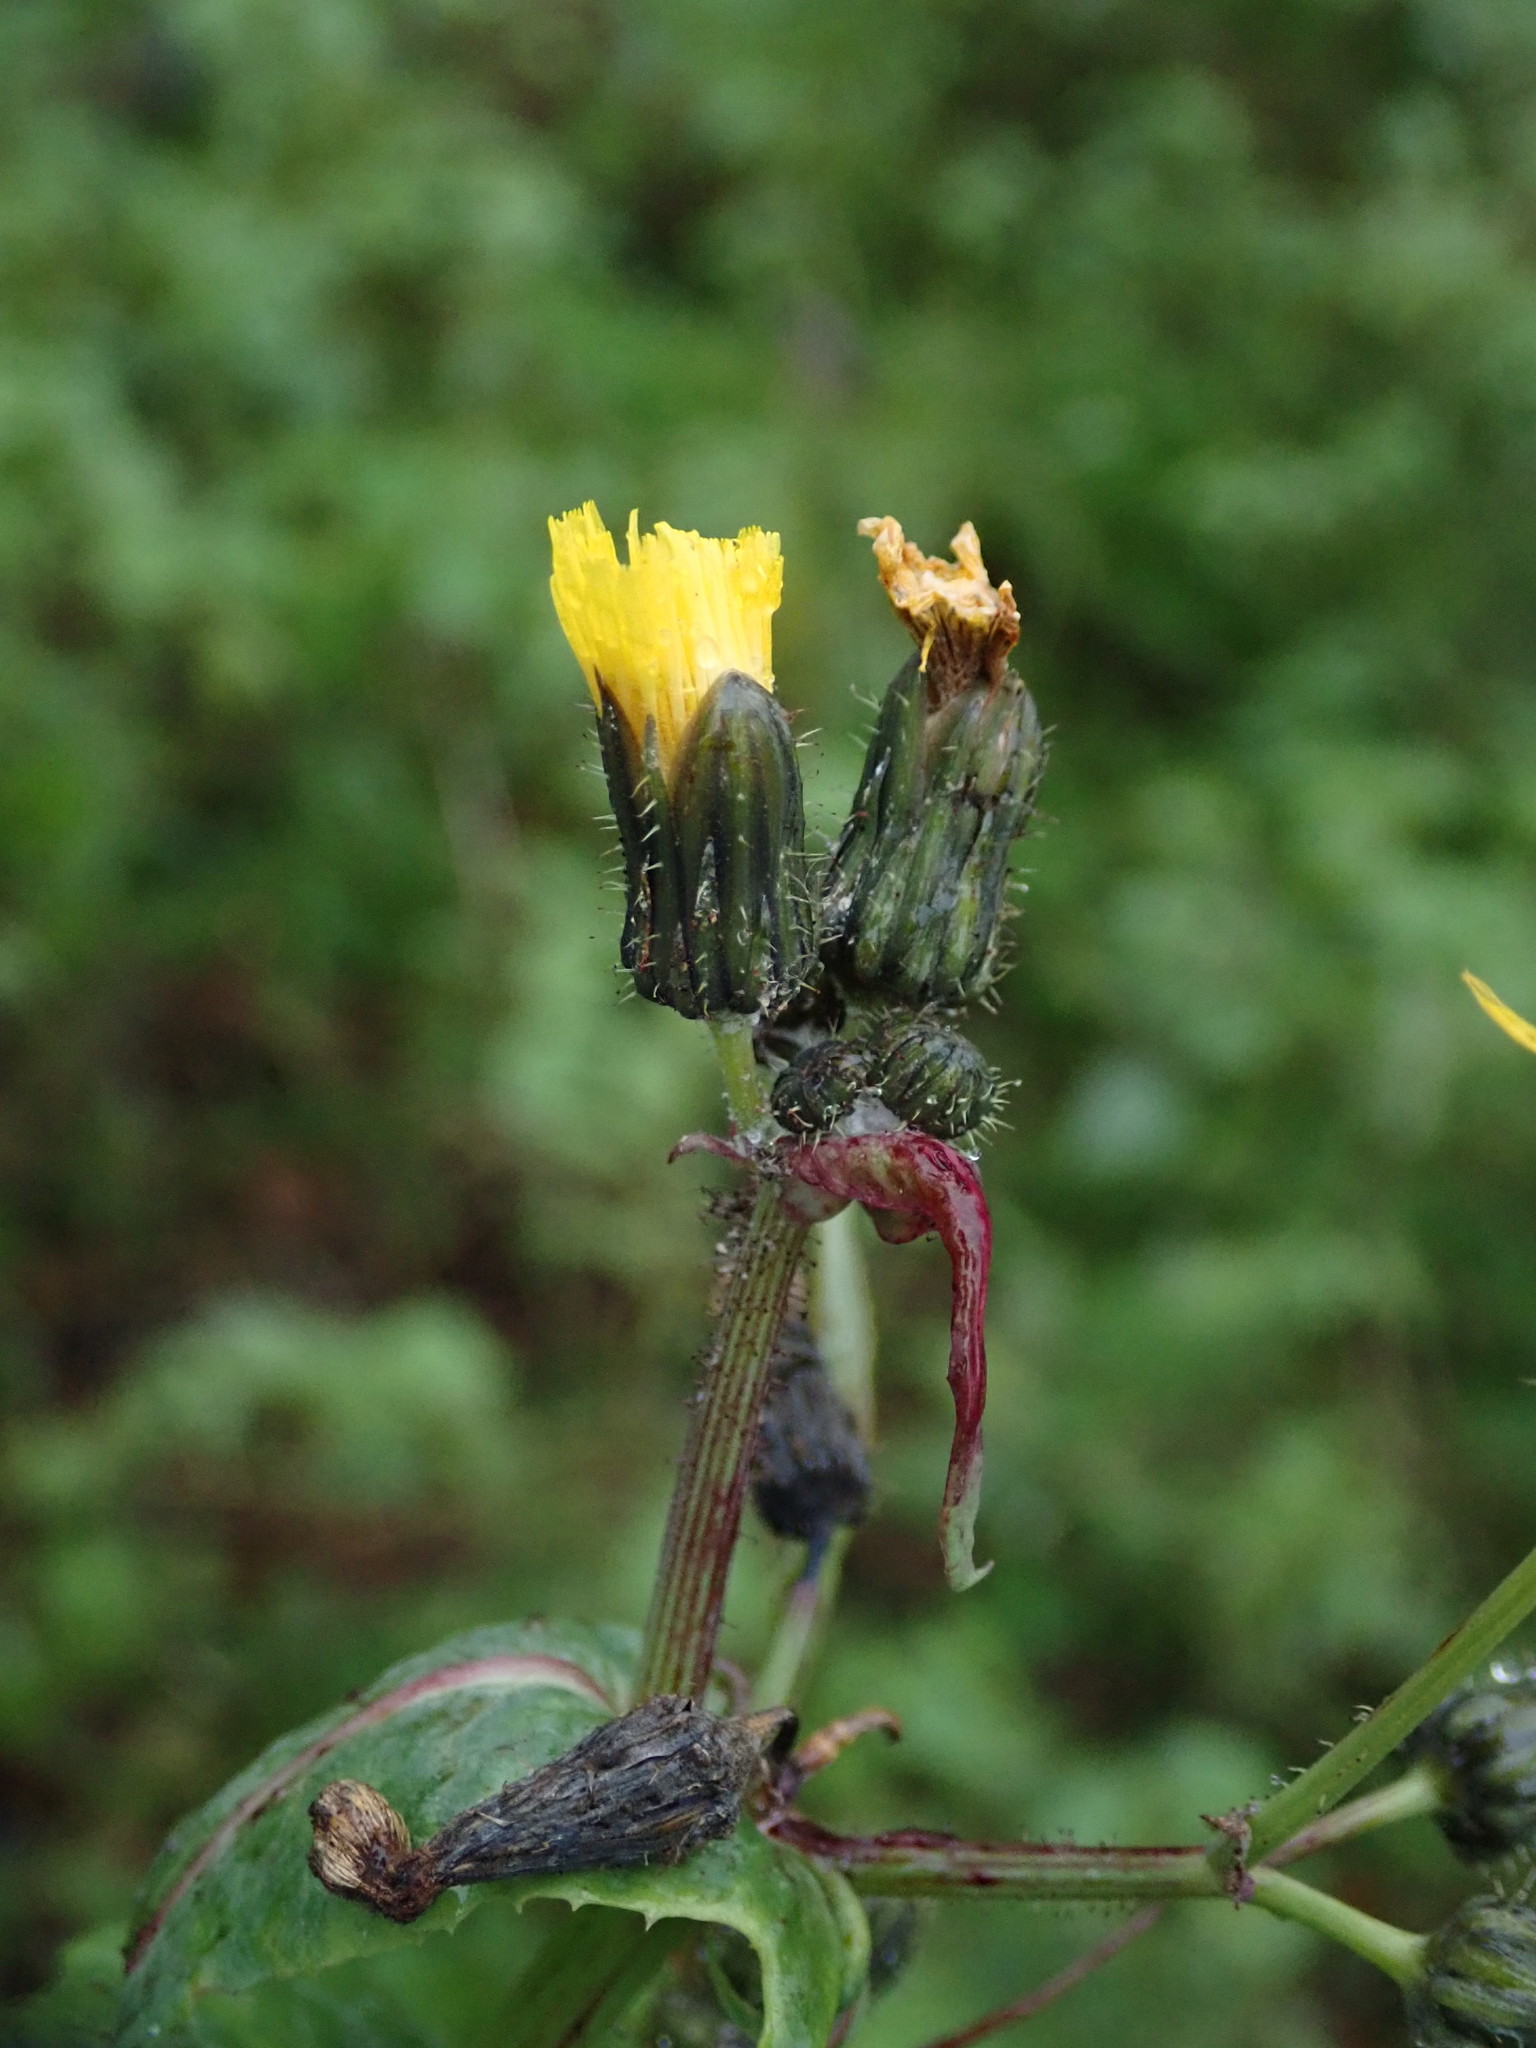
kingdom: Plantae
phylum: Tracheophyta
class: Magnoliopsida
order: Asterales
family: Asteraceae
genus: Sonchus
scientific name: Sonchus oleraceus
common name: Common sowthistle
